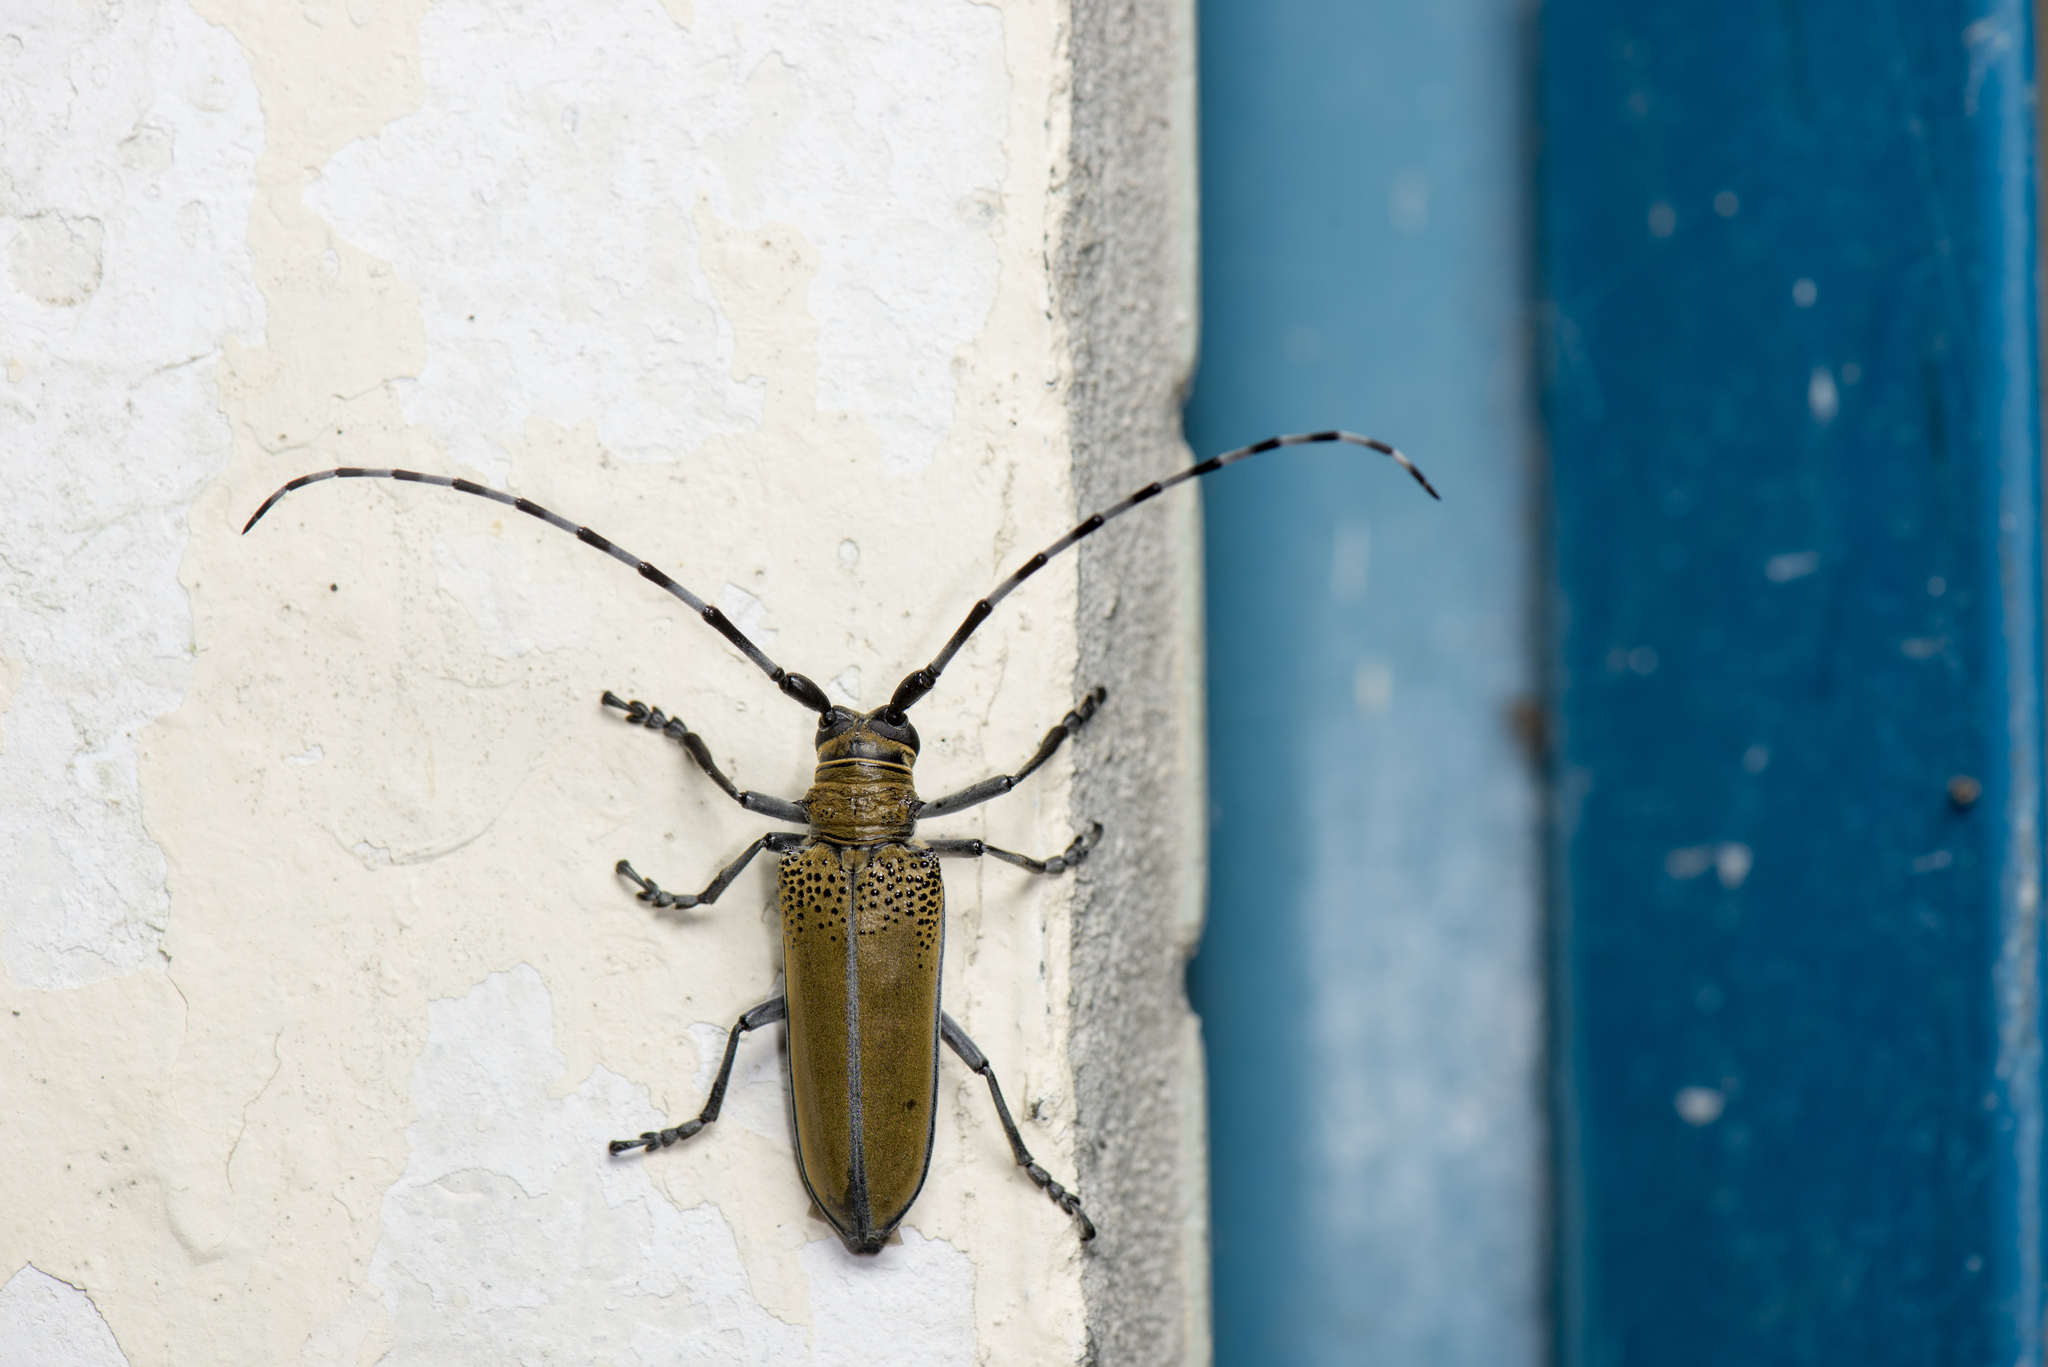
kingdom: Animalia
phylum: Arthropoda
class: Insecta
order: Coleoptera
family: Cerambycidae
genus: Apriona
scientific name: Apriona rugicollis
